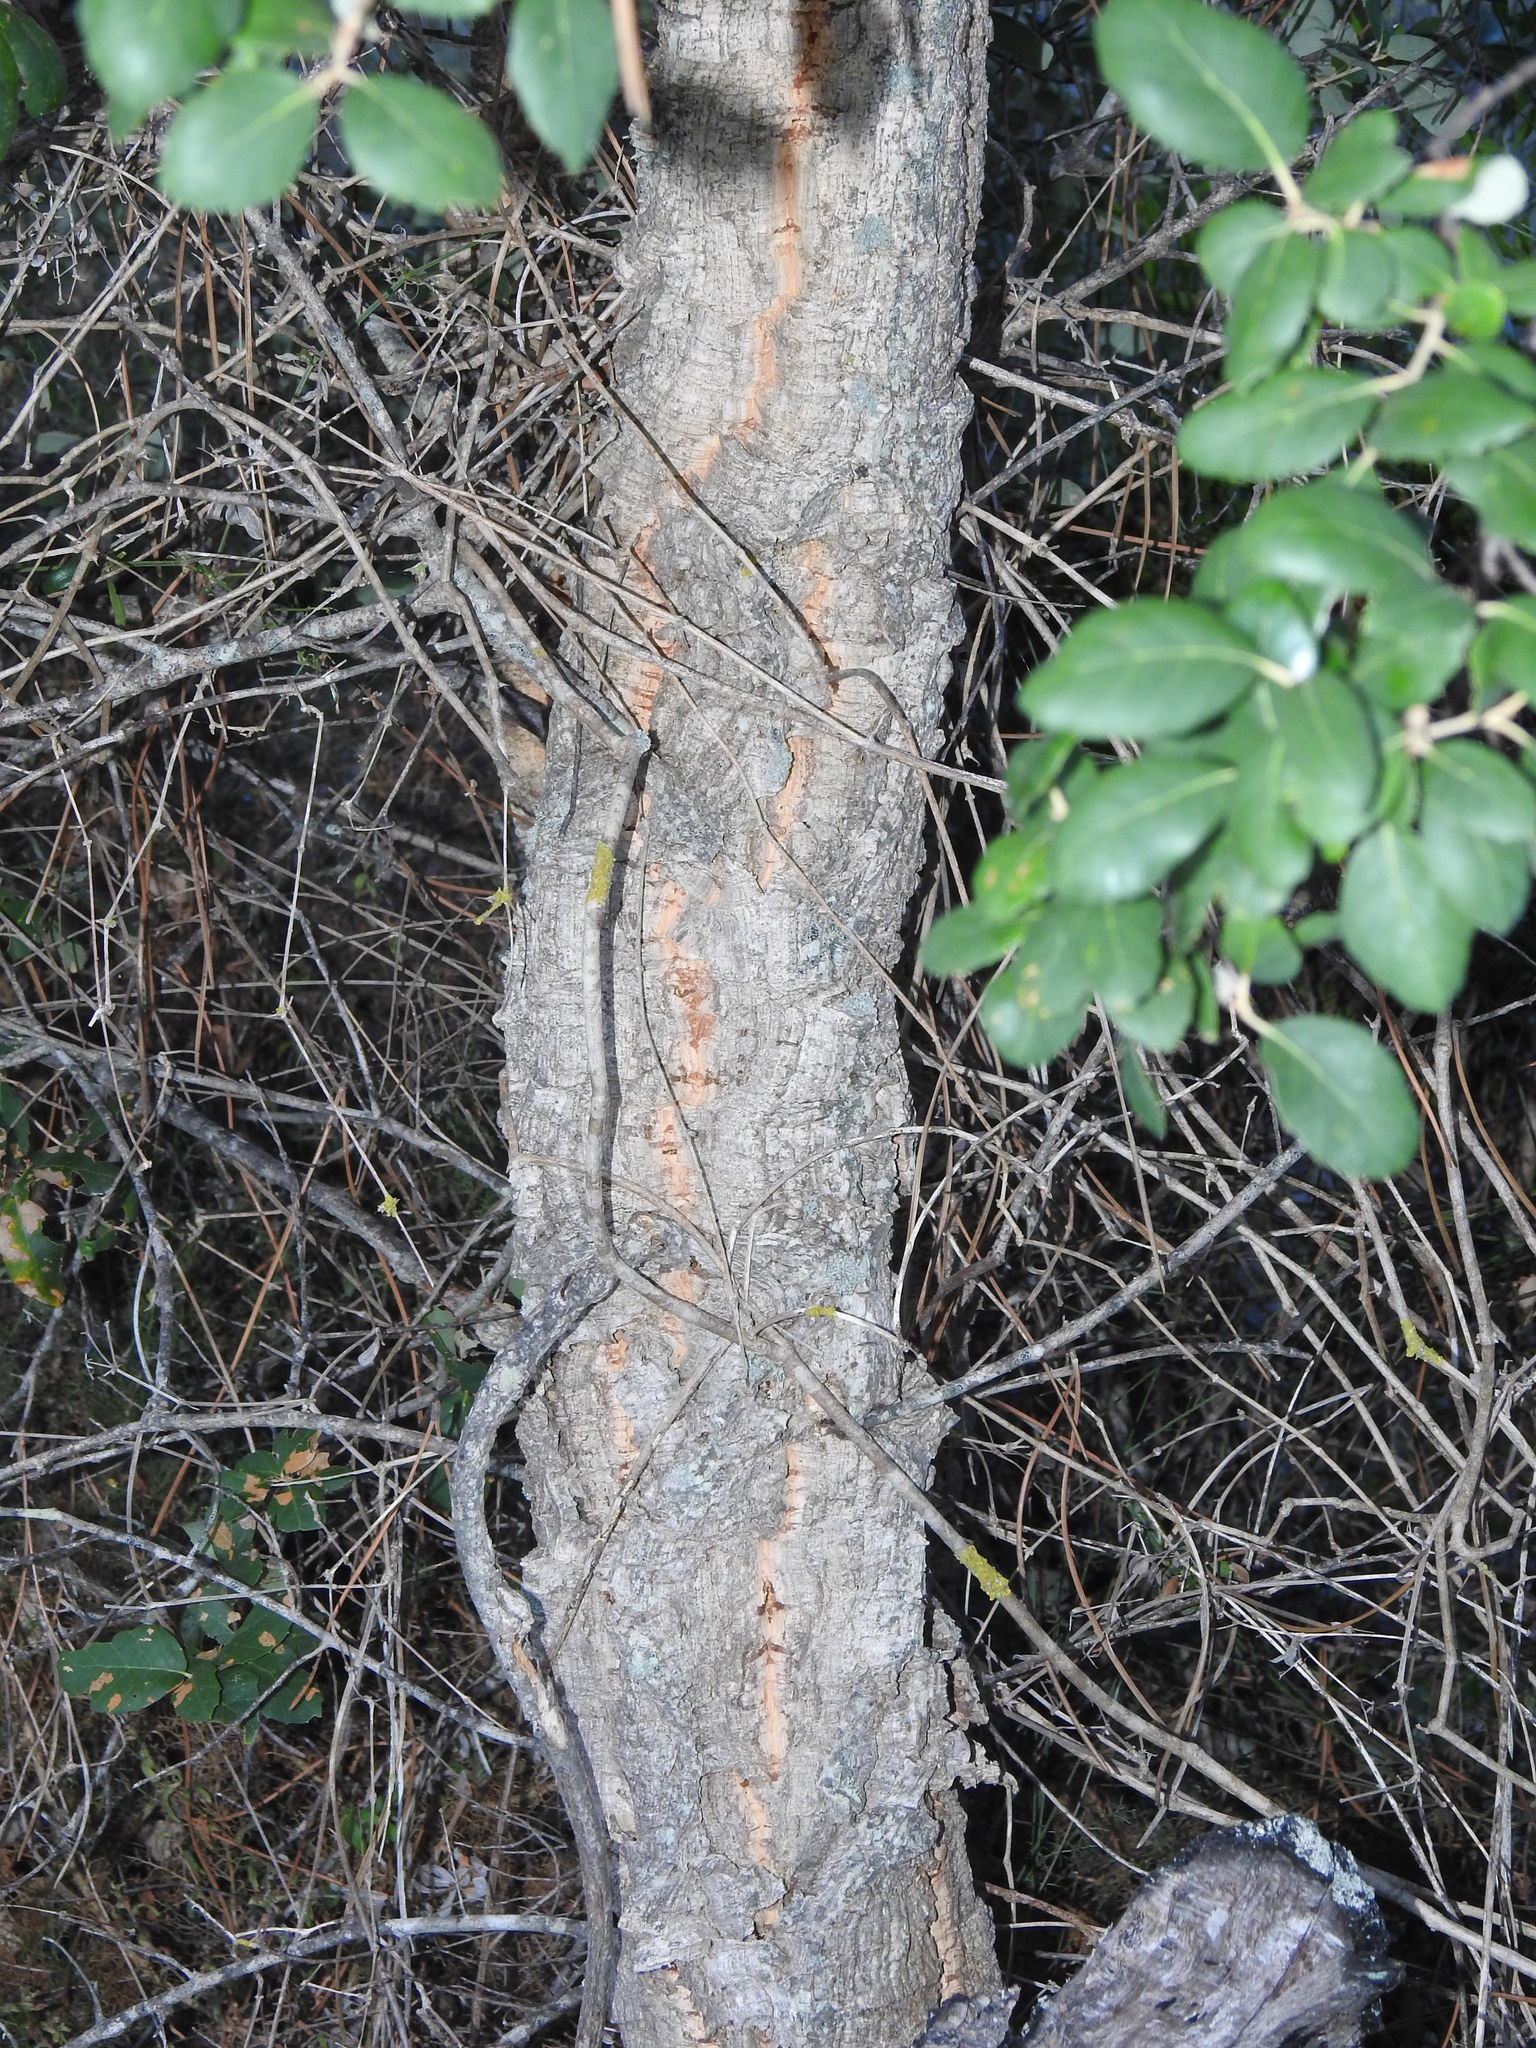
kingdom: Plantae
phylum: Tracheophyta
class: Magnoliopsida
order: Fagales
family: Fagaceae
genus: Quercus
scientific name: Quercus suber
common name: Cork oak
